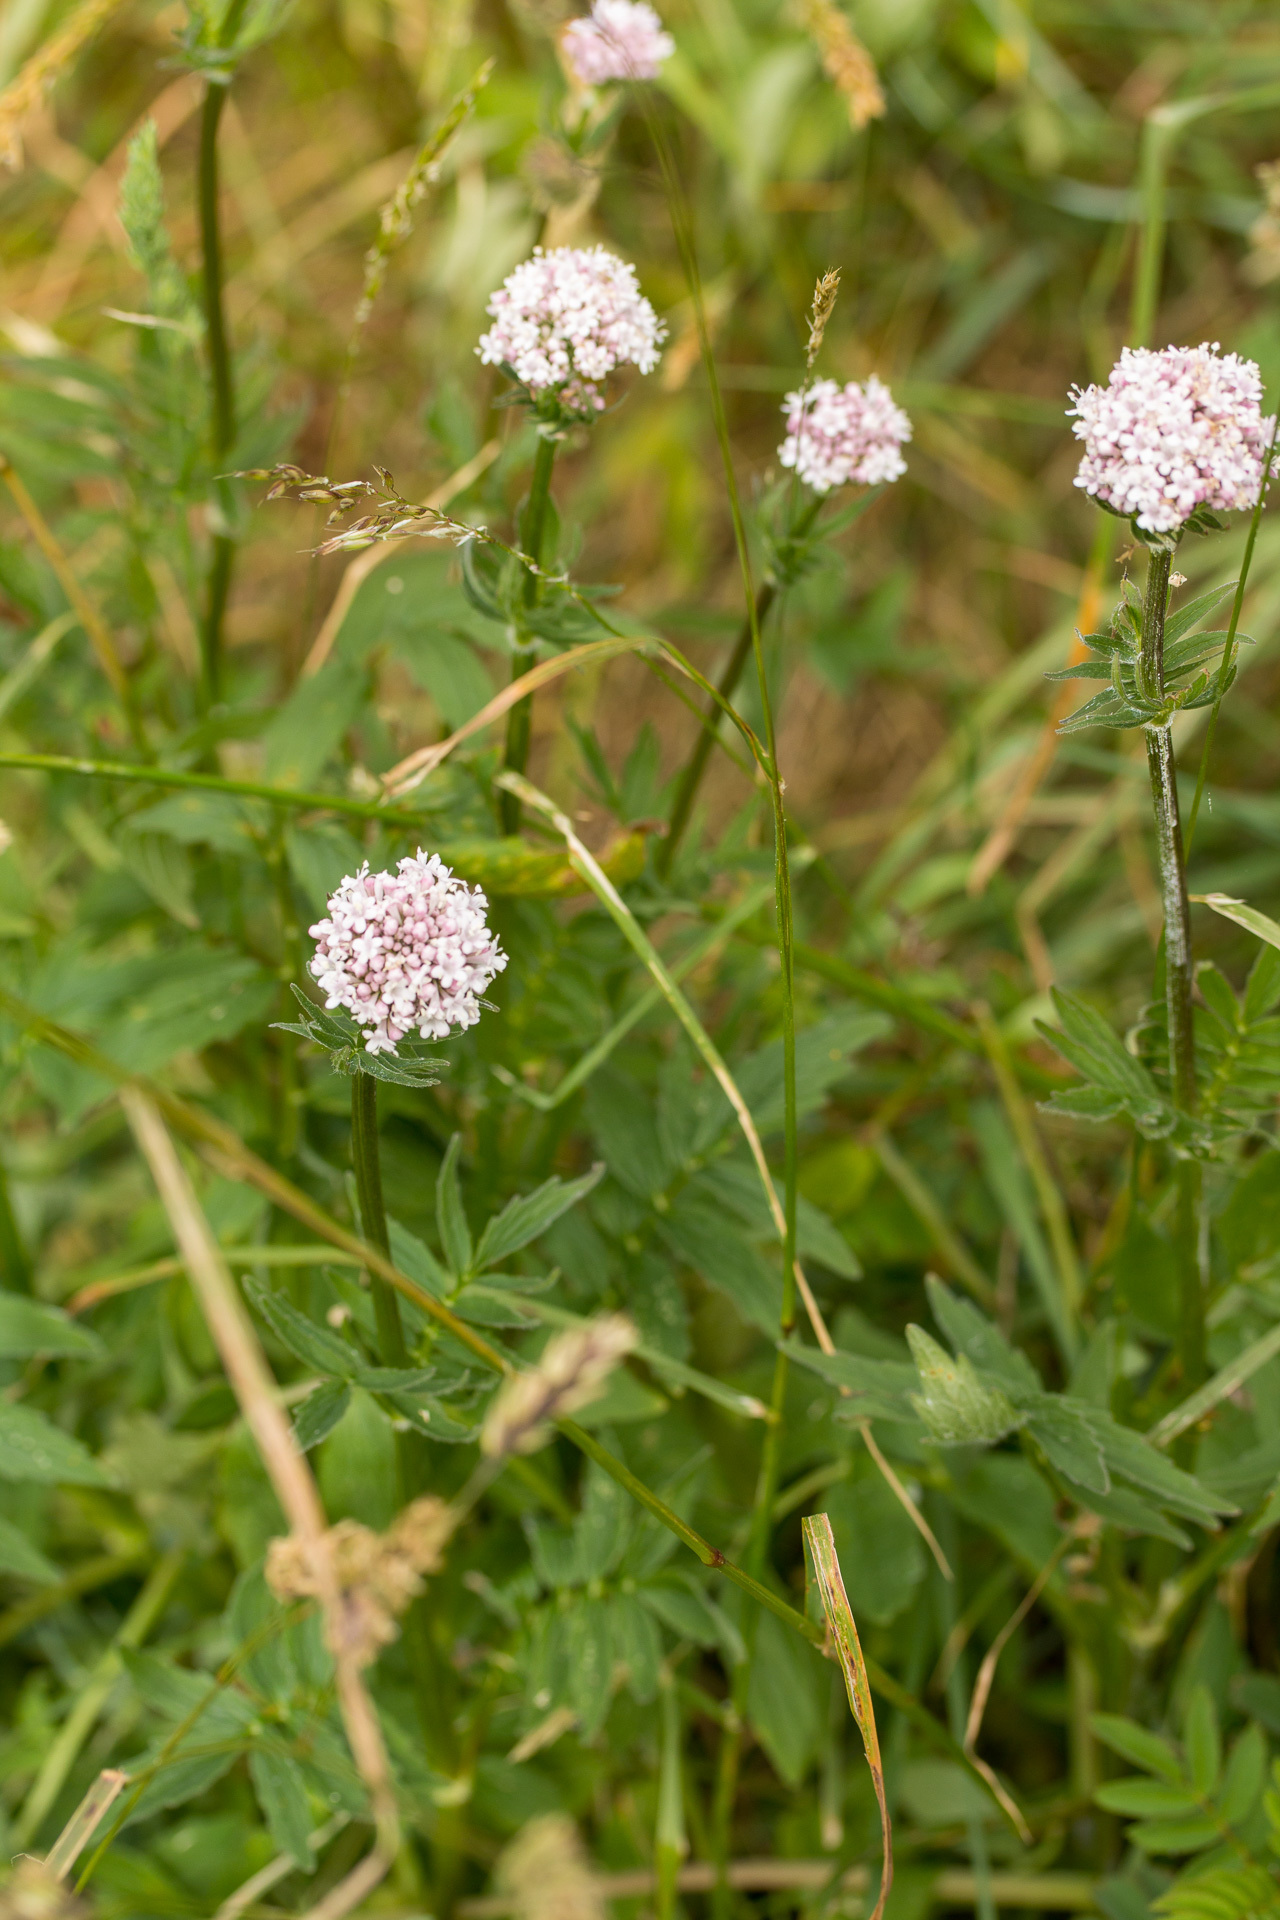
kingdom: Plantae
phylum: Tracheophyta
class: Magnoliopsida
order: Dipsacales
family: Caprifoliaceae
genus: Valeriana
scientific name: Valeriana officinalis
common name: Common valerian
